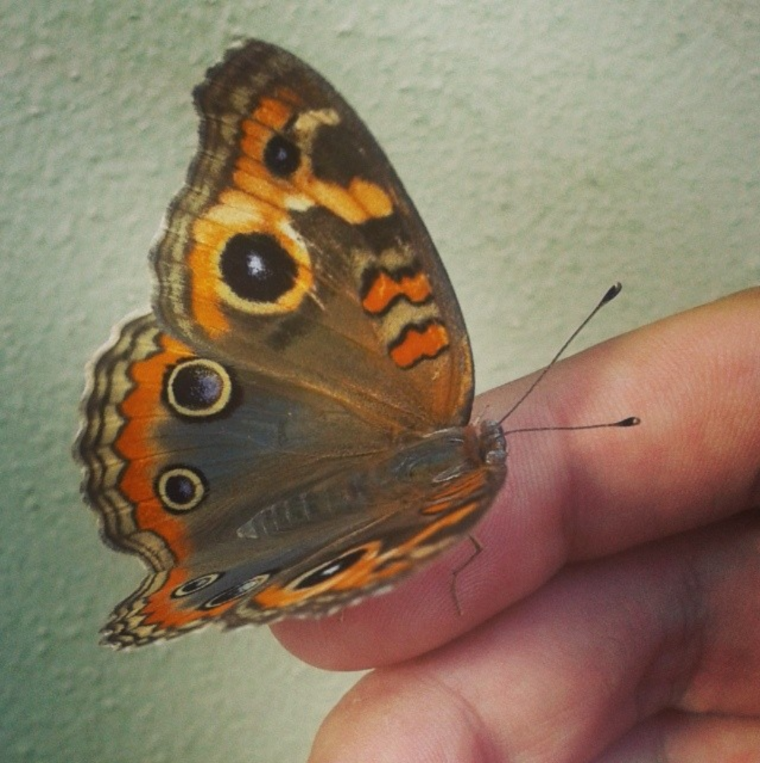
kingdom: Animalia
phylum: Arthropoda
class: Insecta
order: Lepidoptera
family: Nymphalidae
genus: Junonia
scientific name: Junonia lavinia
